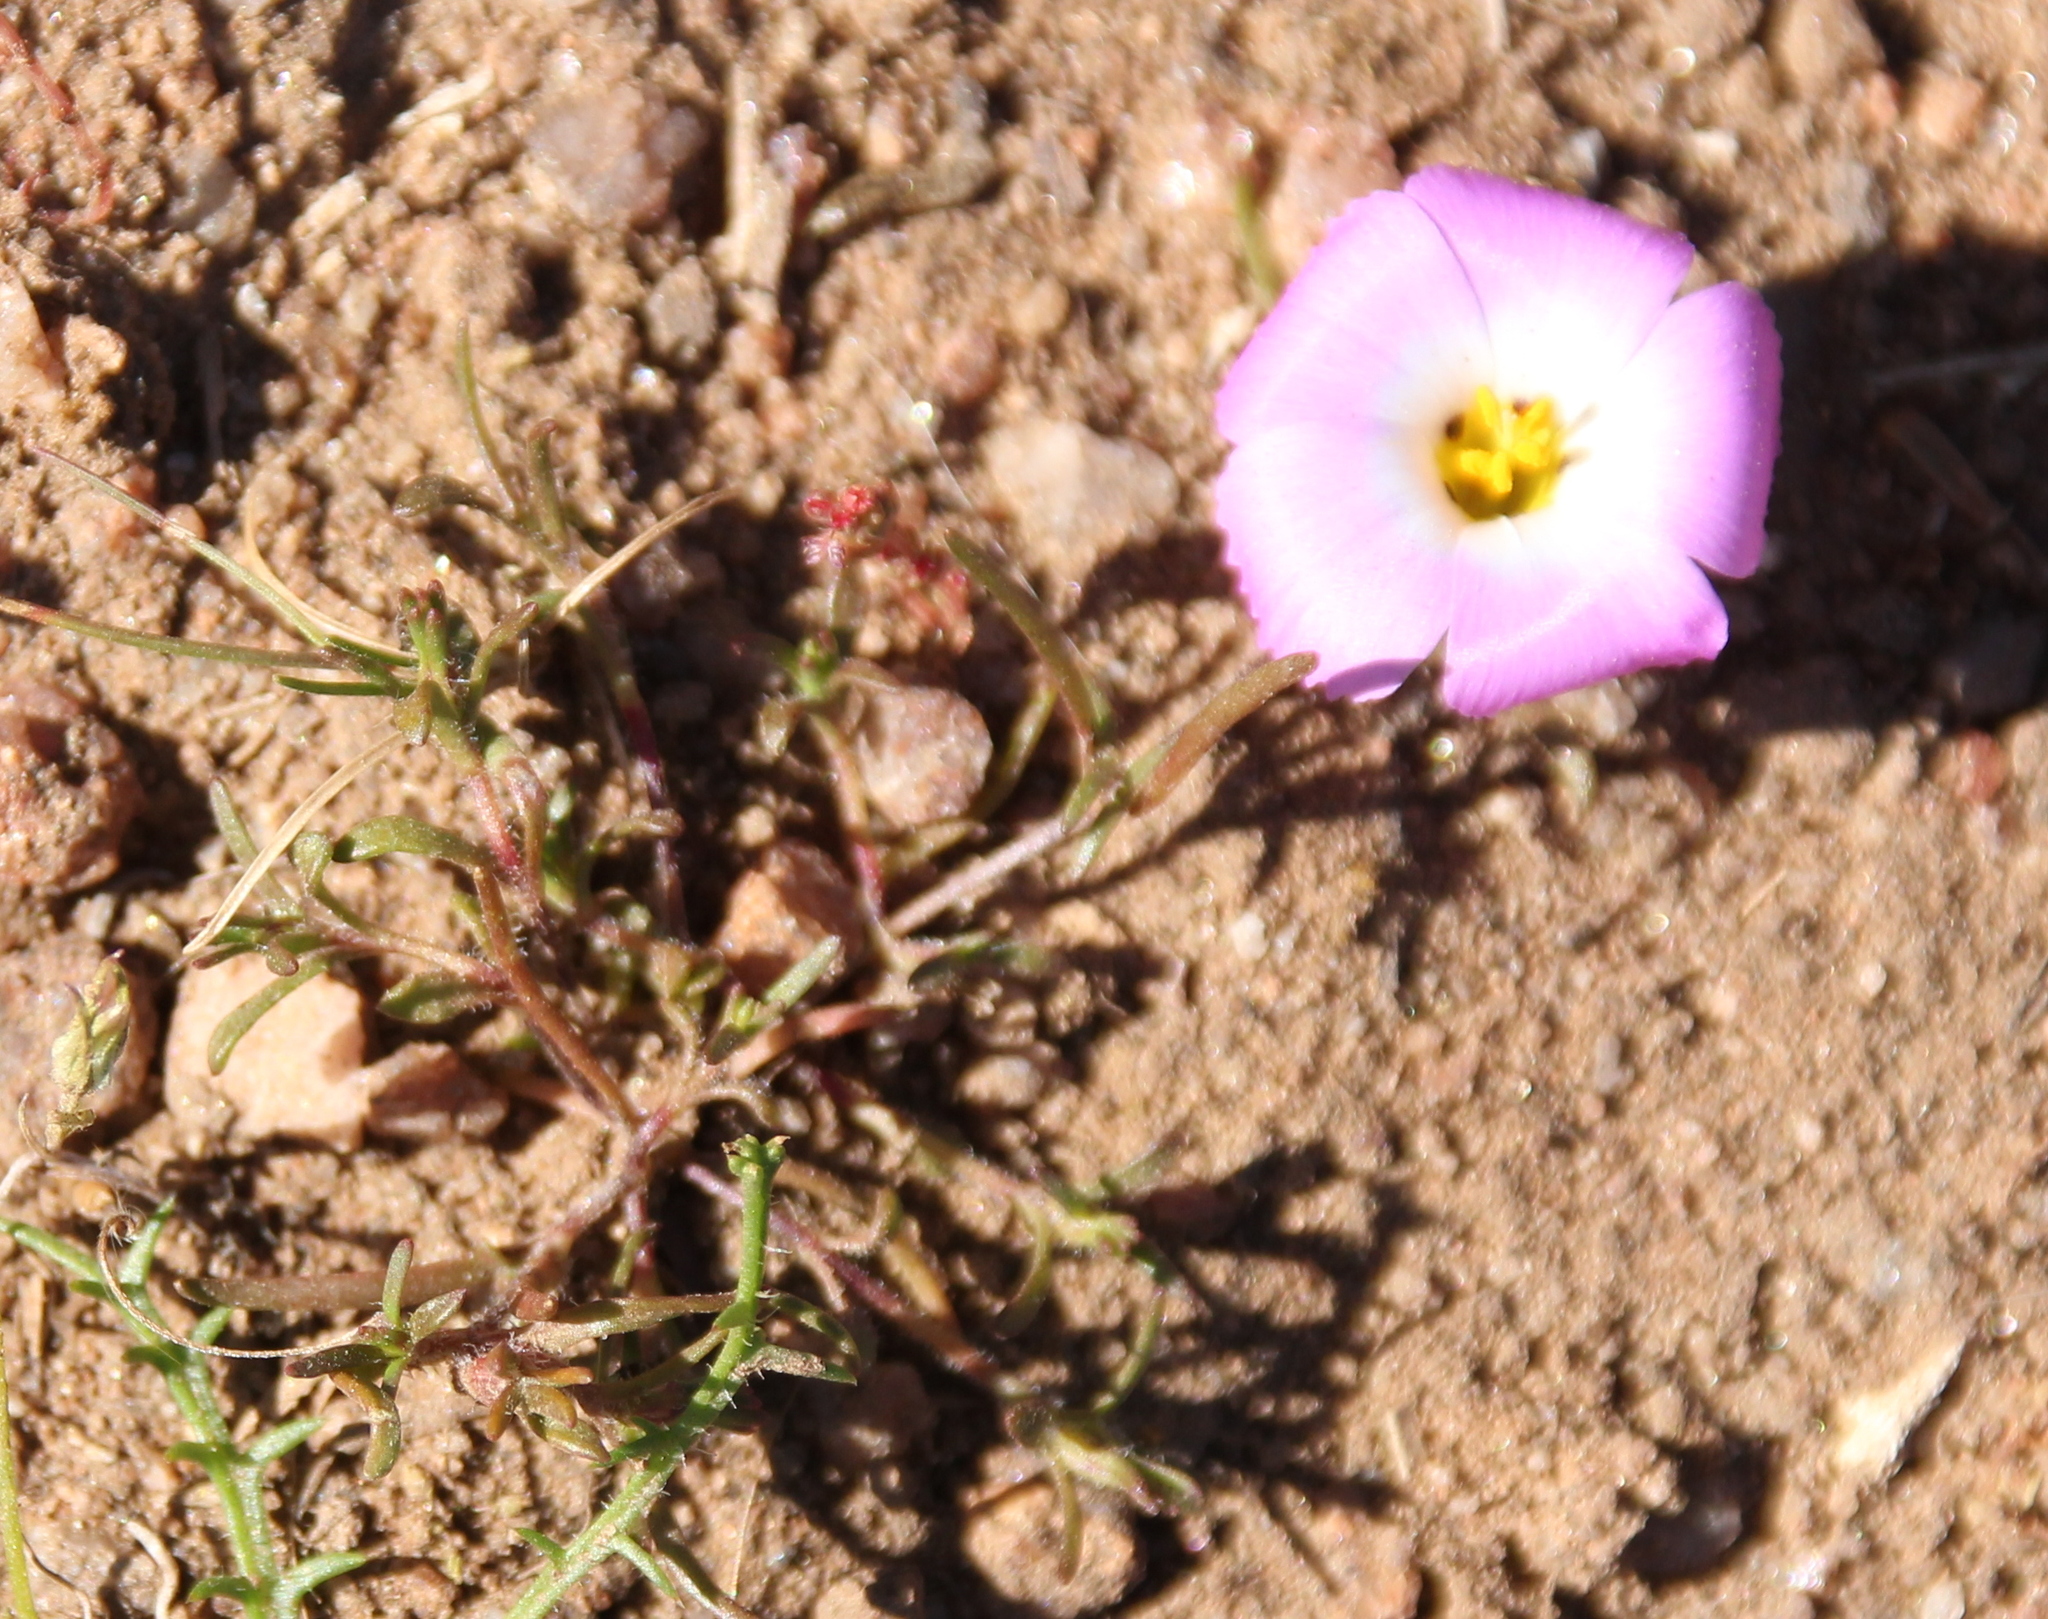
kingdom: Plantae
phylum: Tracheophyta
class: Magnoliopsida
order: Ericales
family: Polemoniaceae
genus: Linanthus
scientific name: Linanthus dianthiflorus
